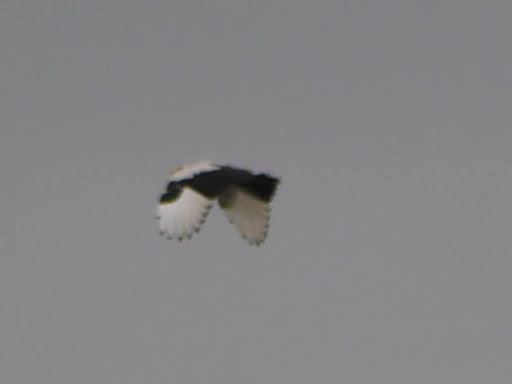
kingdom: Animalia
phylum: Chordata
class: Aves
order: Accipitriformes
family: Accipitridae
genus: Gypohierax
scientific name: Gypohierax angolensis
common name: Palm-nut vulture
